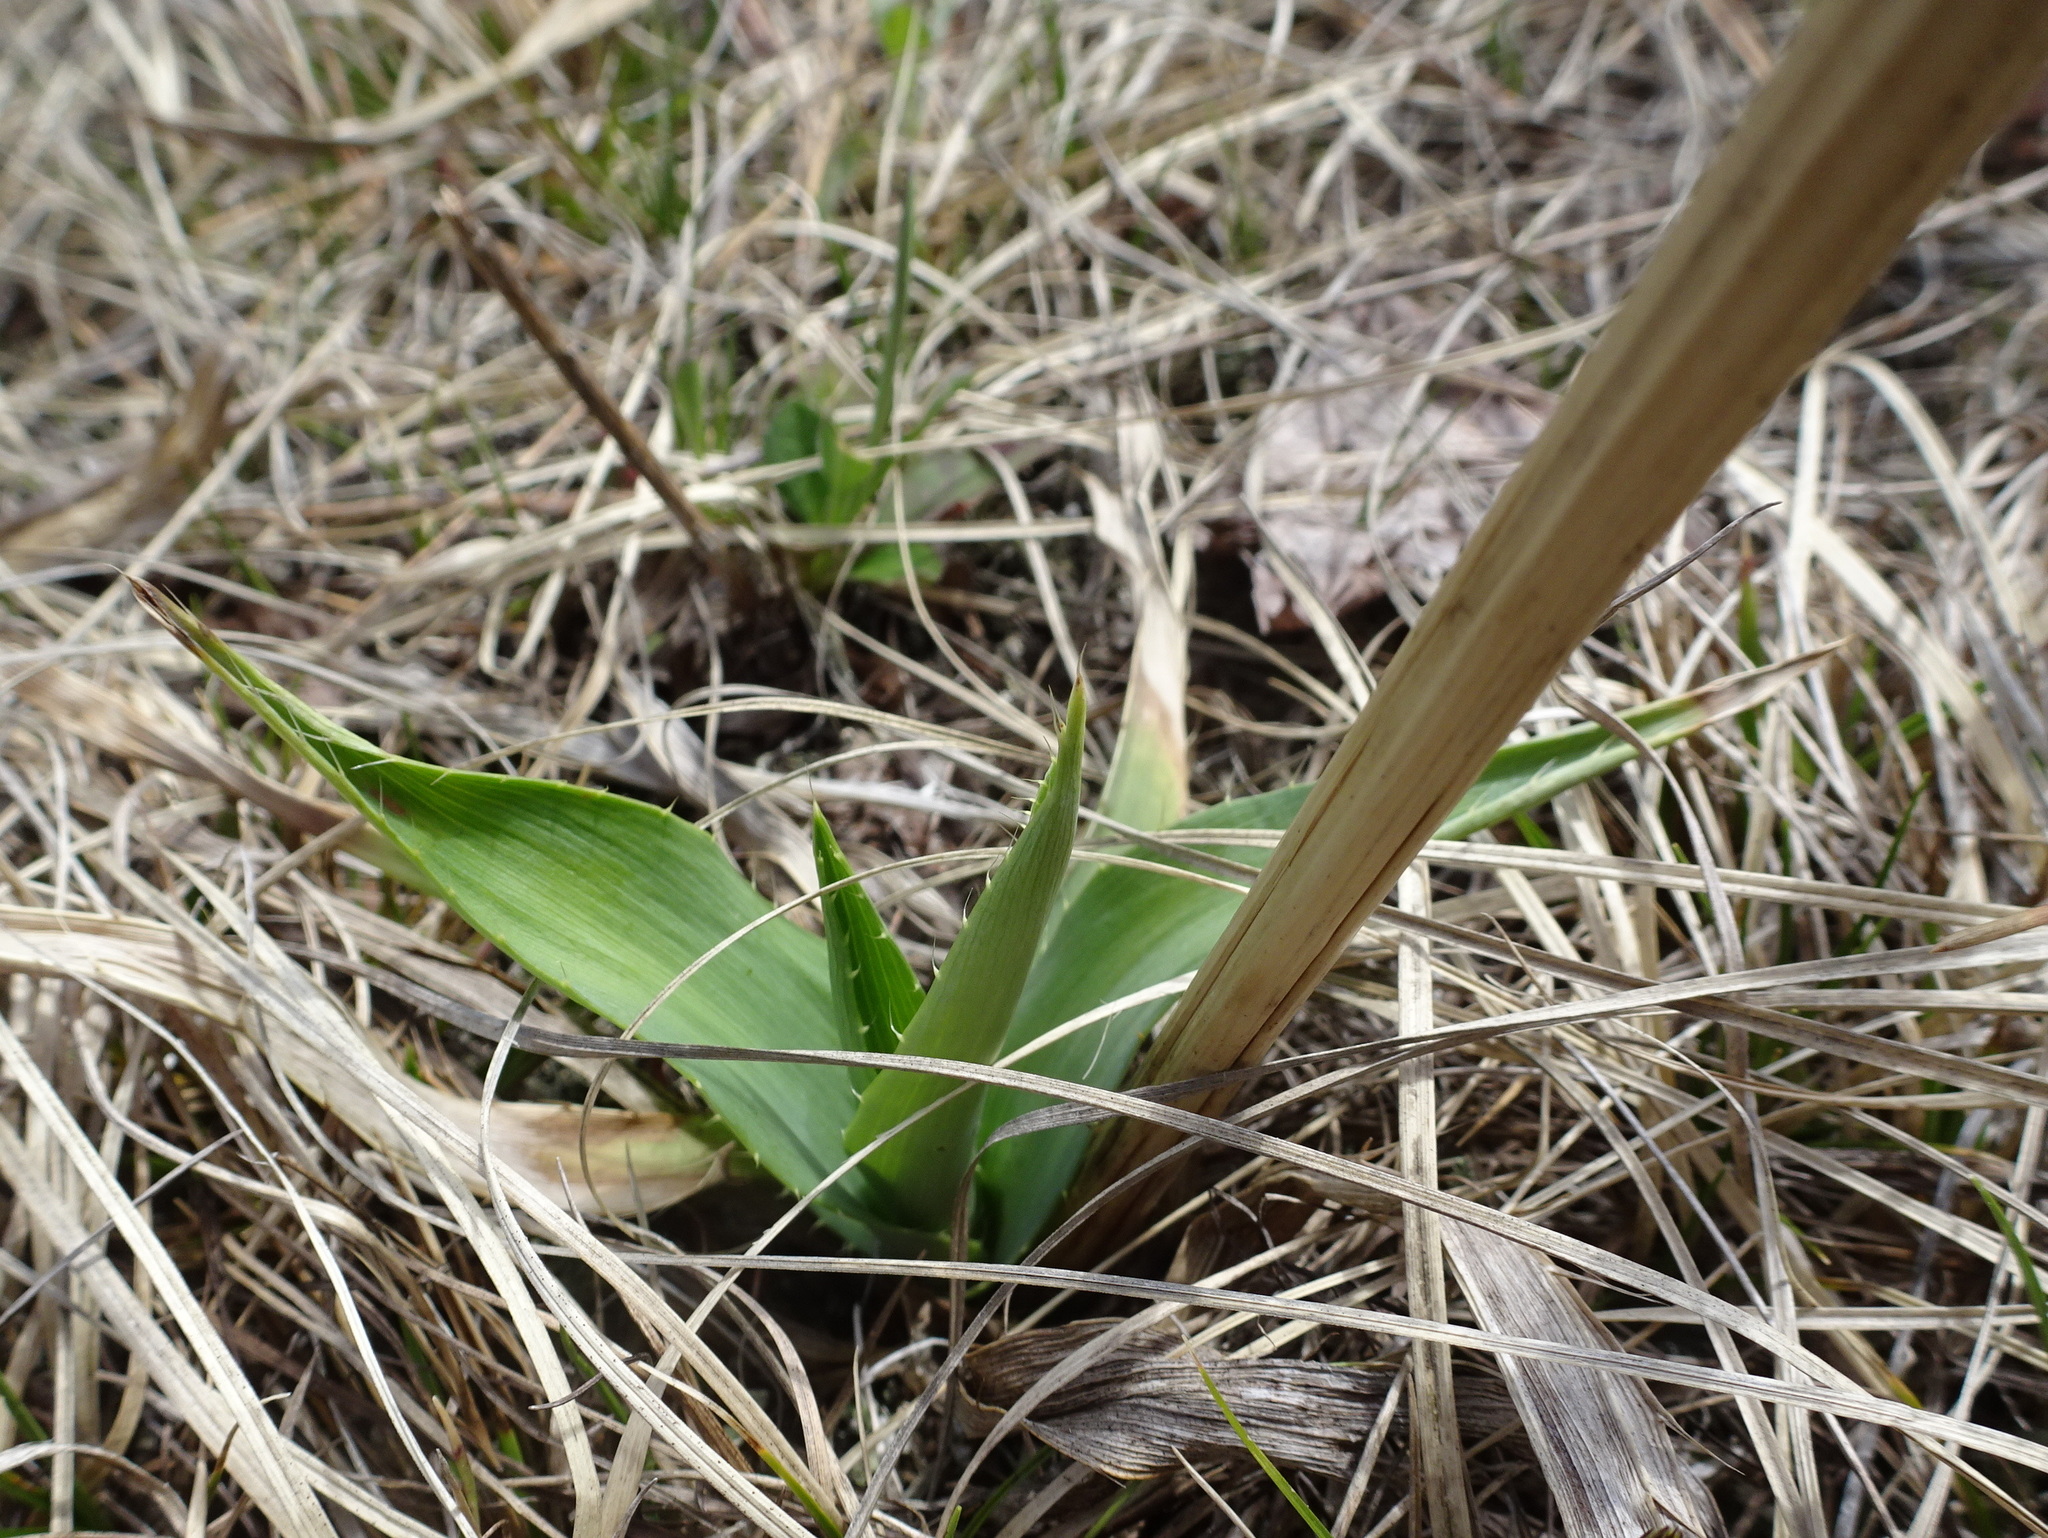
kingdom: Plantae
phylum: Tracheophyta
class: Magnoliopsida
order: Apiales
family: Apiaceae
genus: Eryngium
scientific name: Eryngium yuccifolium
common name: Button eryngo
